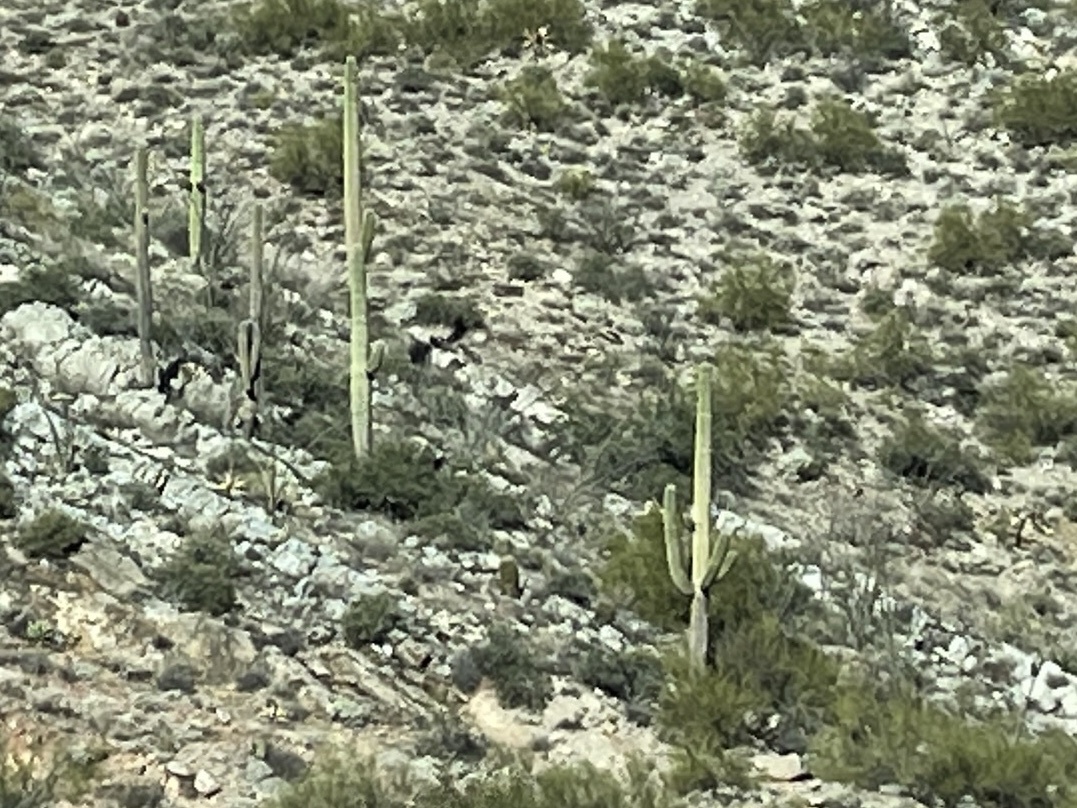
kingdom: Plantae
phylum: Tracheophyta
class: Magnoliopsida
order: Caryophyllales
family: Cactaceae
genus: Carnegiea
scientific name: Carnegiea gigantea
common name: Saguaro
